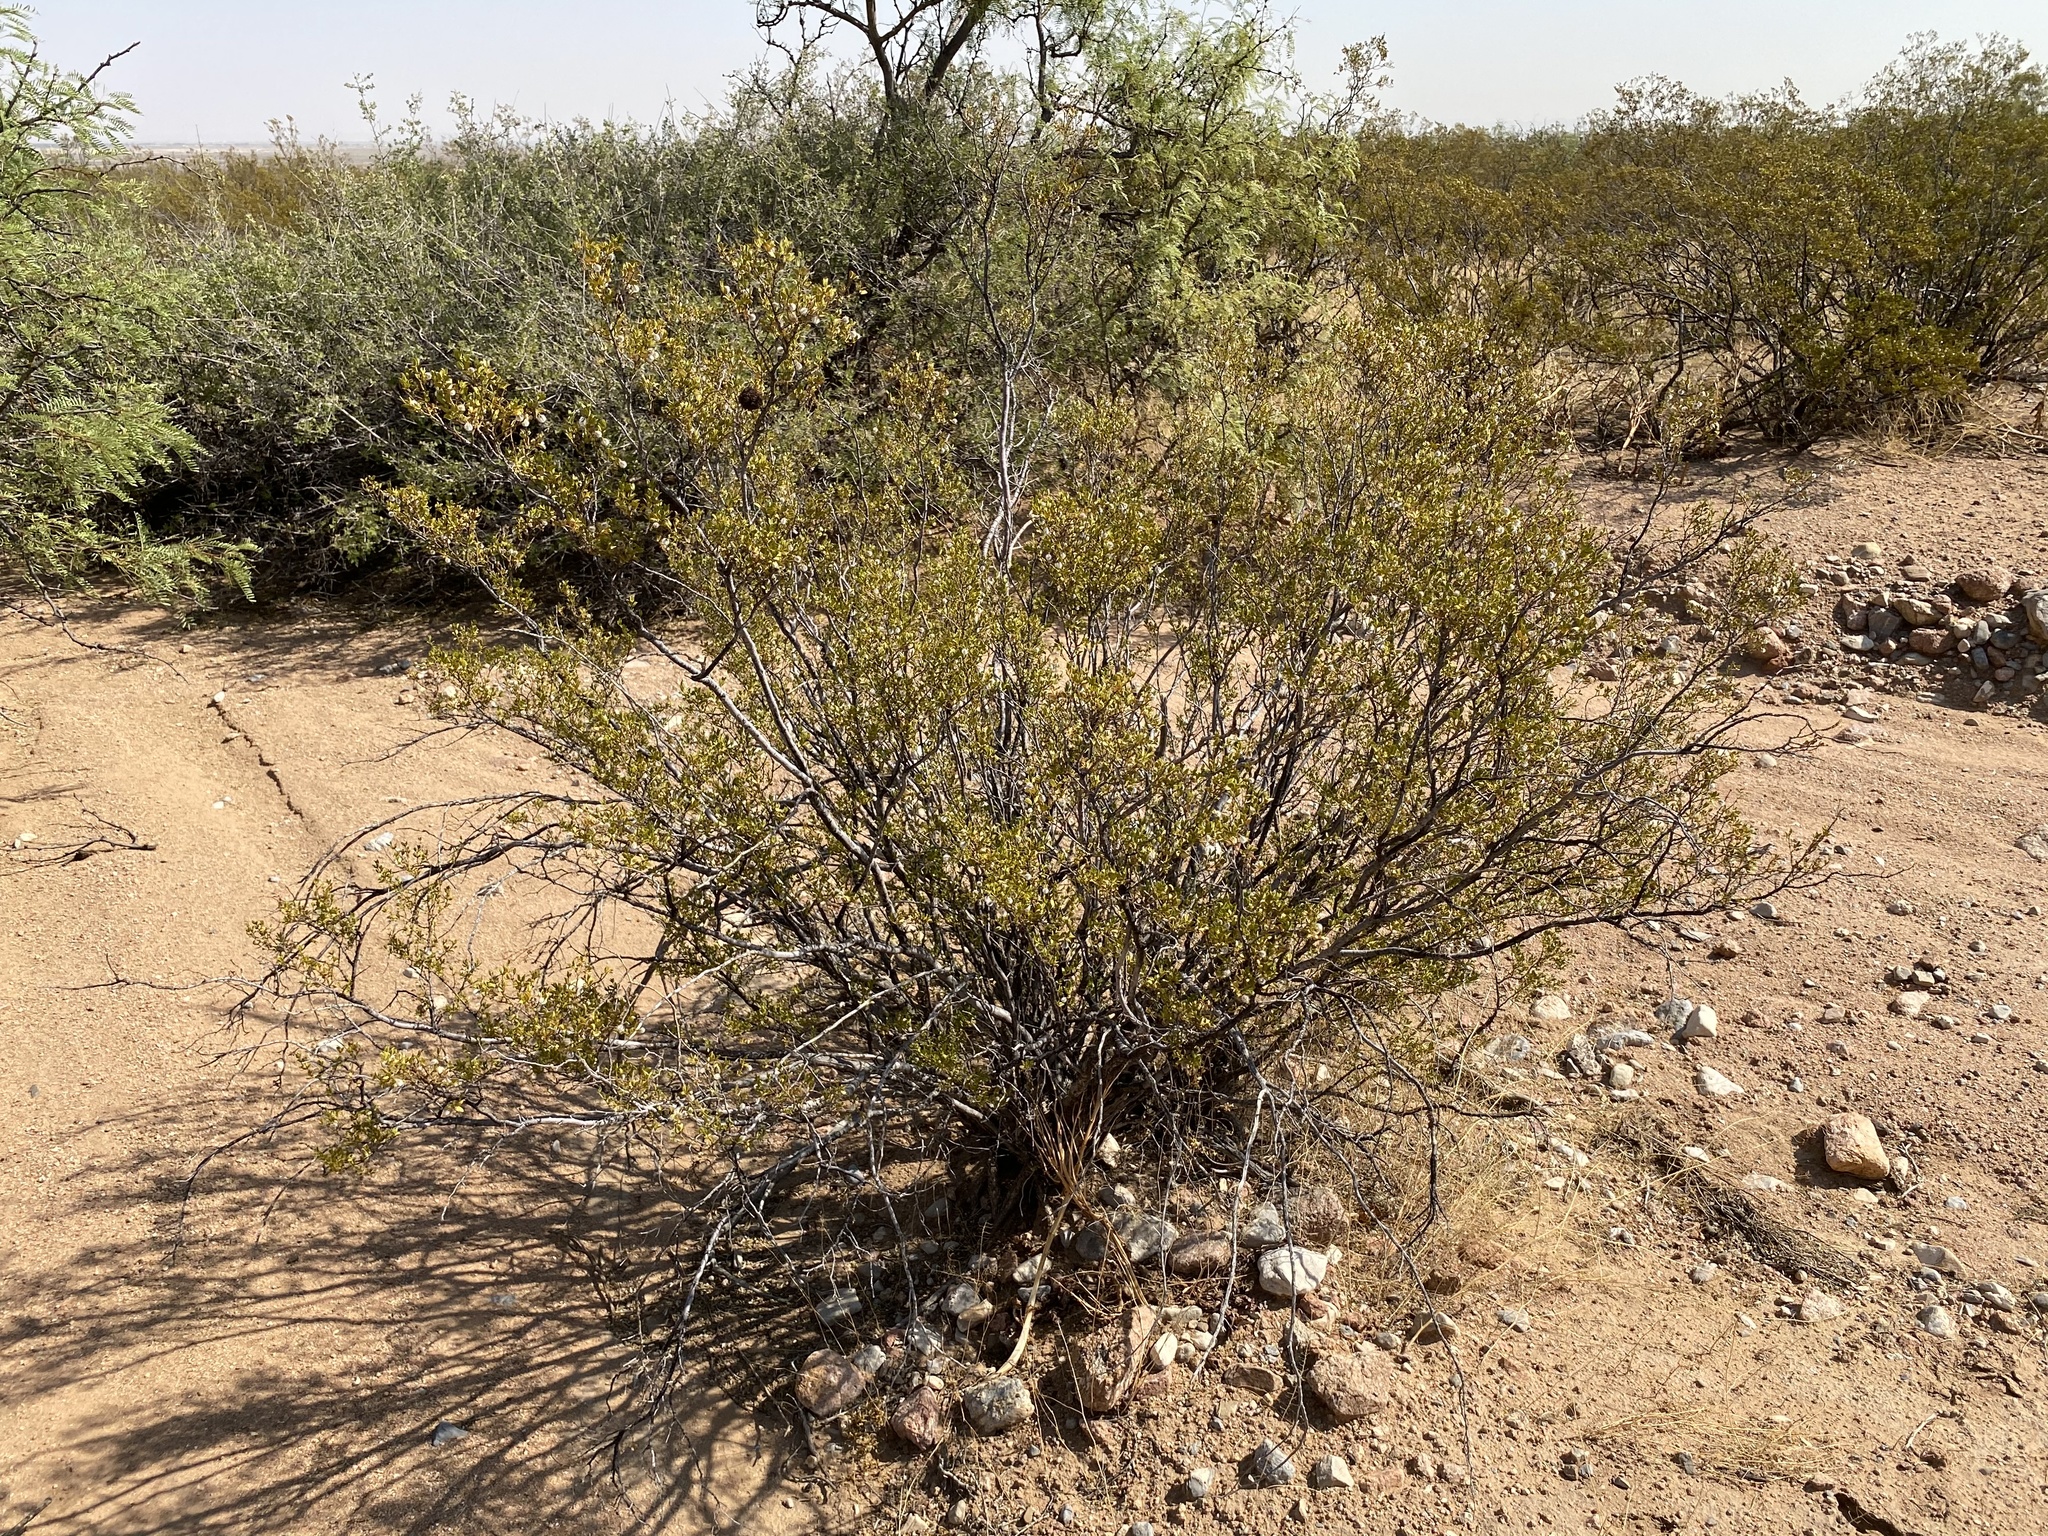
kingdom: Plantae
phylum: Tracheophyta
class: Magnoliopsida
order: Zygophyllales
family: Zygophyllaceae
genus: Larrea
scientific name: Larrea tridentata
